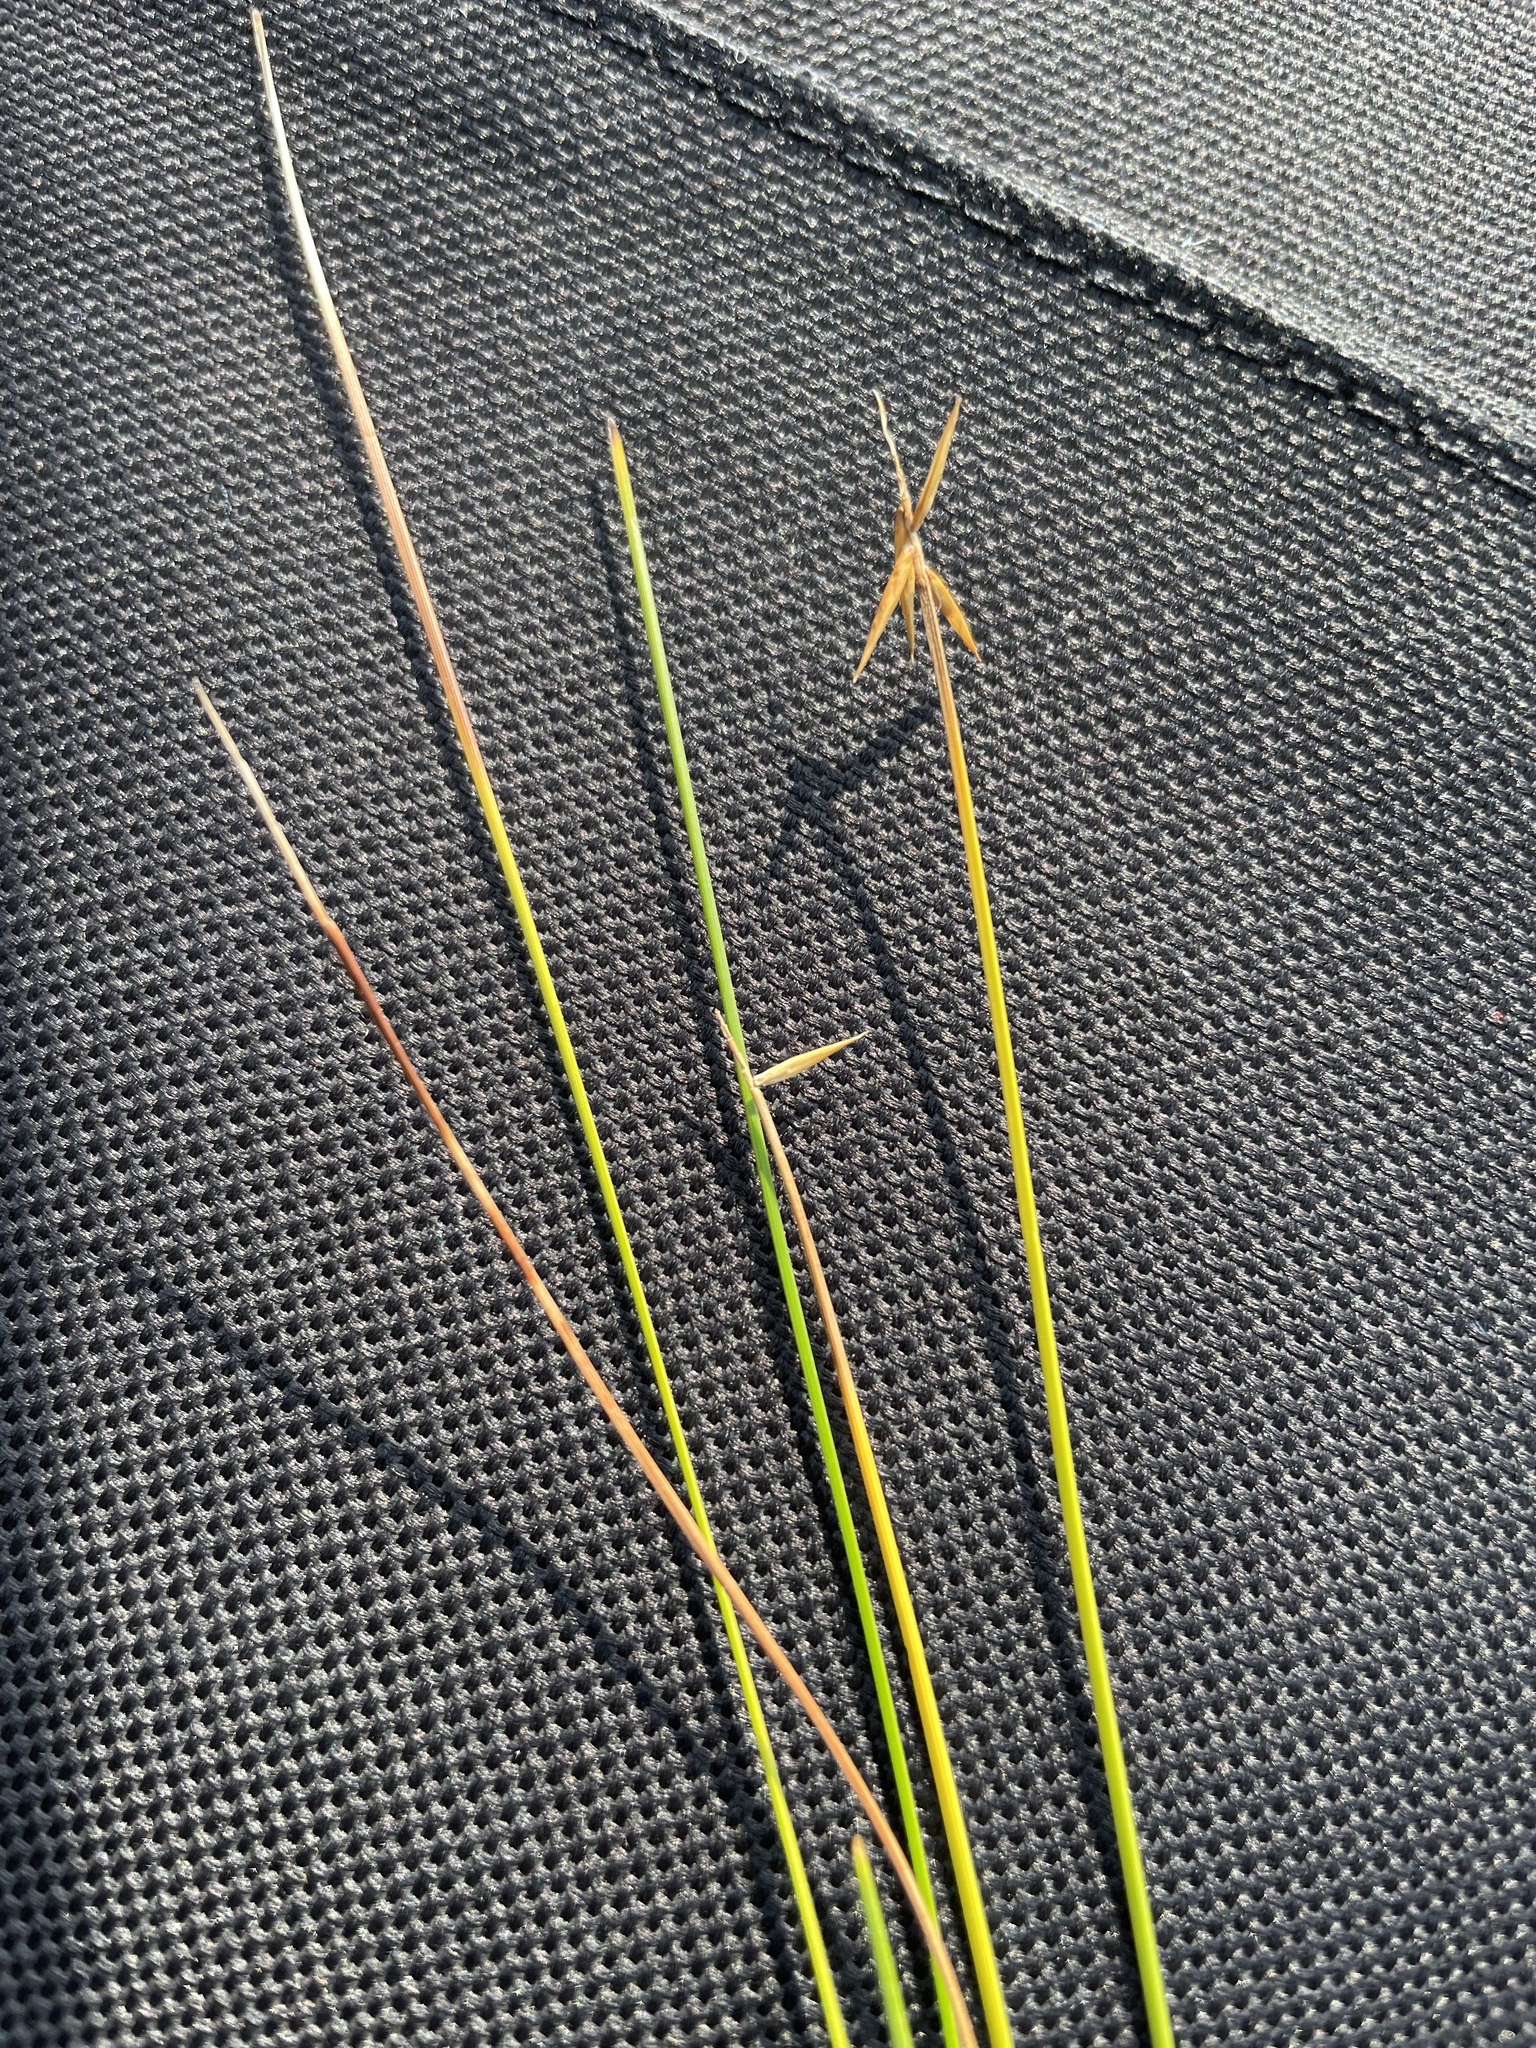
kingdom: Plantae
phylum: Tracheophyta
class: Liliopsida
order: Poales
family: Cyperaceae
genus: Carex
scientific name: Carex pauciflora
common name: Few-flowered sedge
